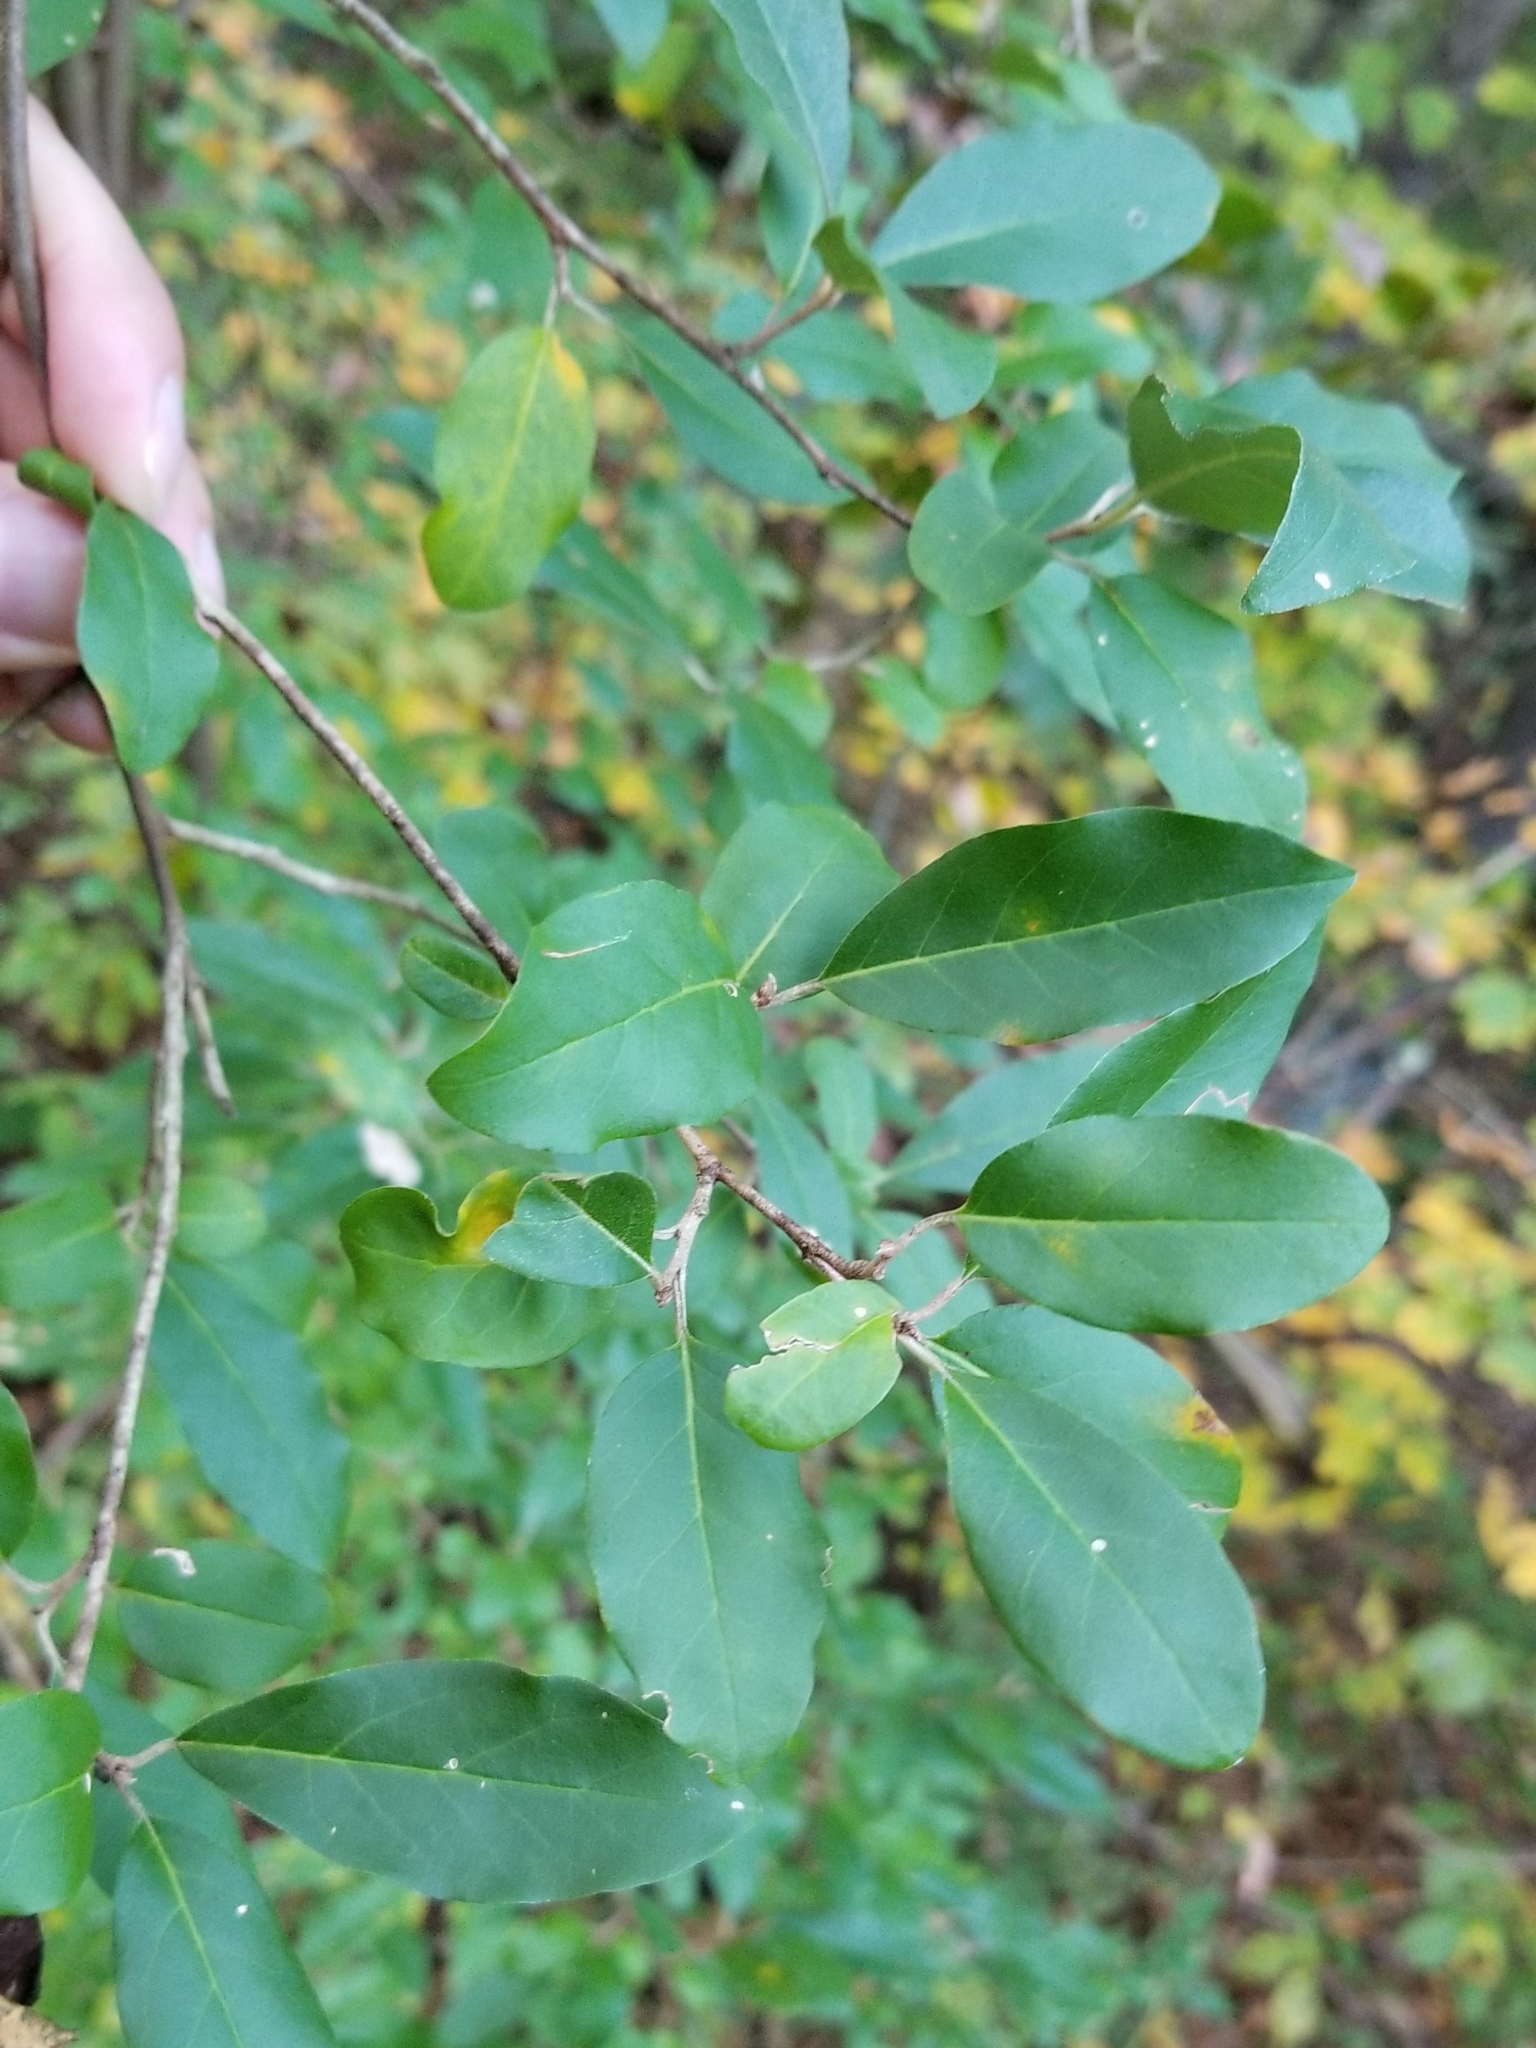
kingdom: Plantae
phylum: Tracheophyta
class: Magnoliopsida
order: Rosales
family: Elaeagnaceae
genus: Elaeagnus
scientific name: Elaeagnus umbellata
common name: Autumn olive
